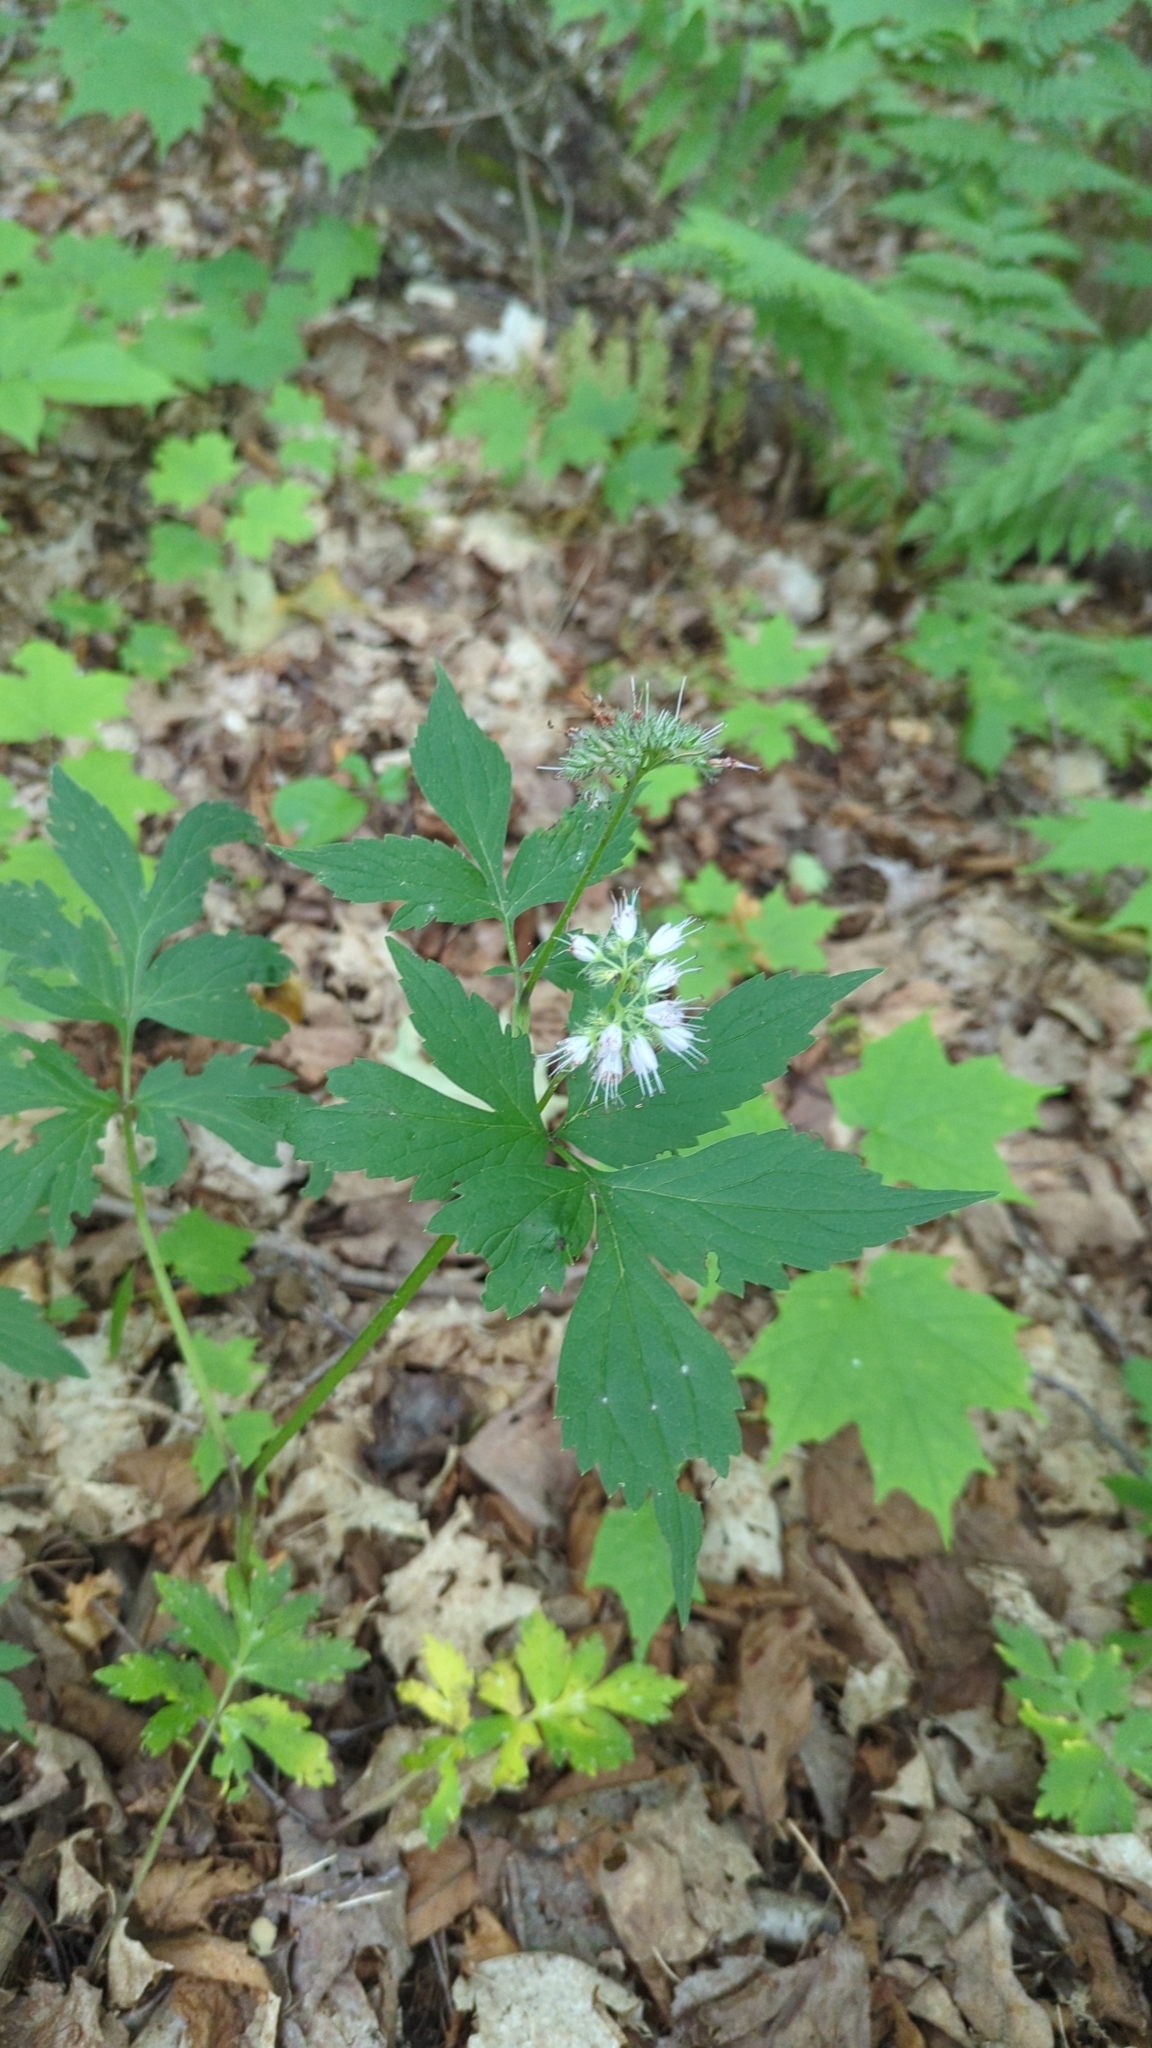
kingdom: Plantae
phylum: Tracheophyta
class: Magnoliopsida
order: Boraginales
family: Hydrophyllaceae
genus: Hydrophyllum
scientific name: Hydrophyllum virginianum
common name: Virginia waterleaf
